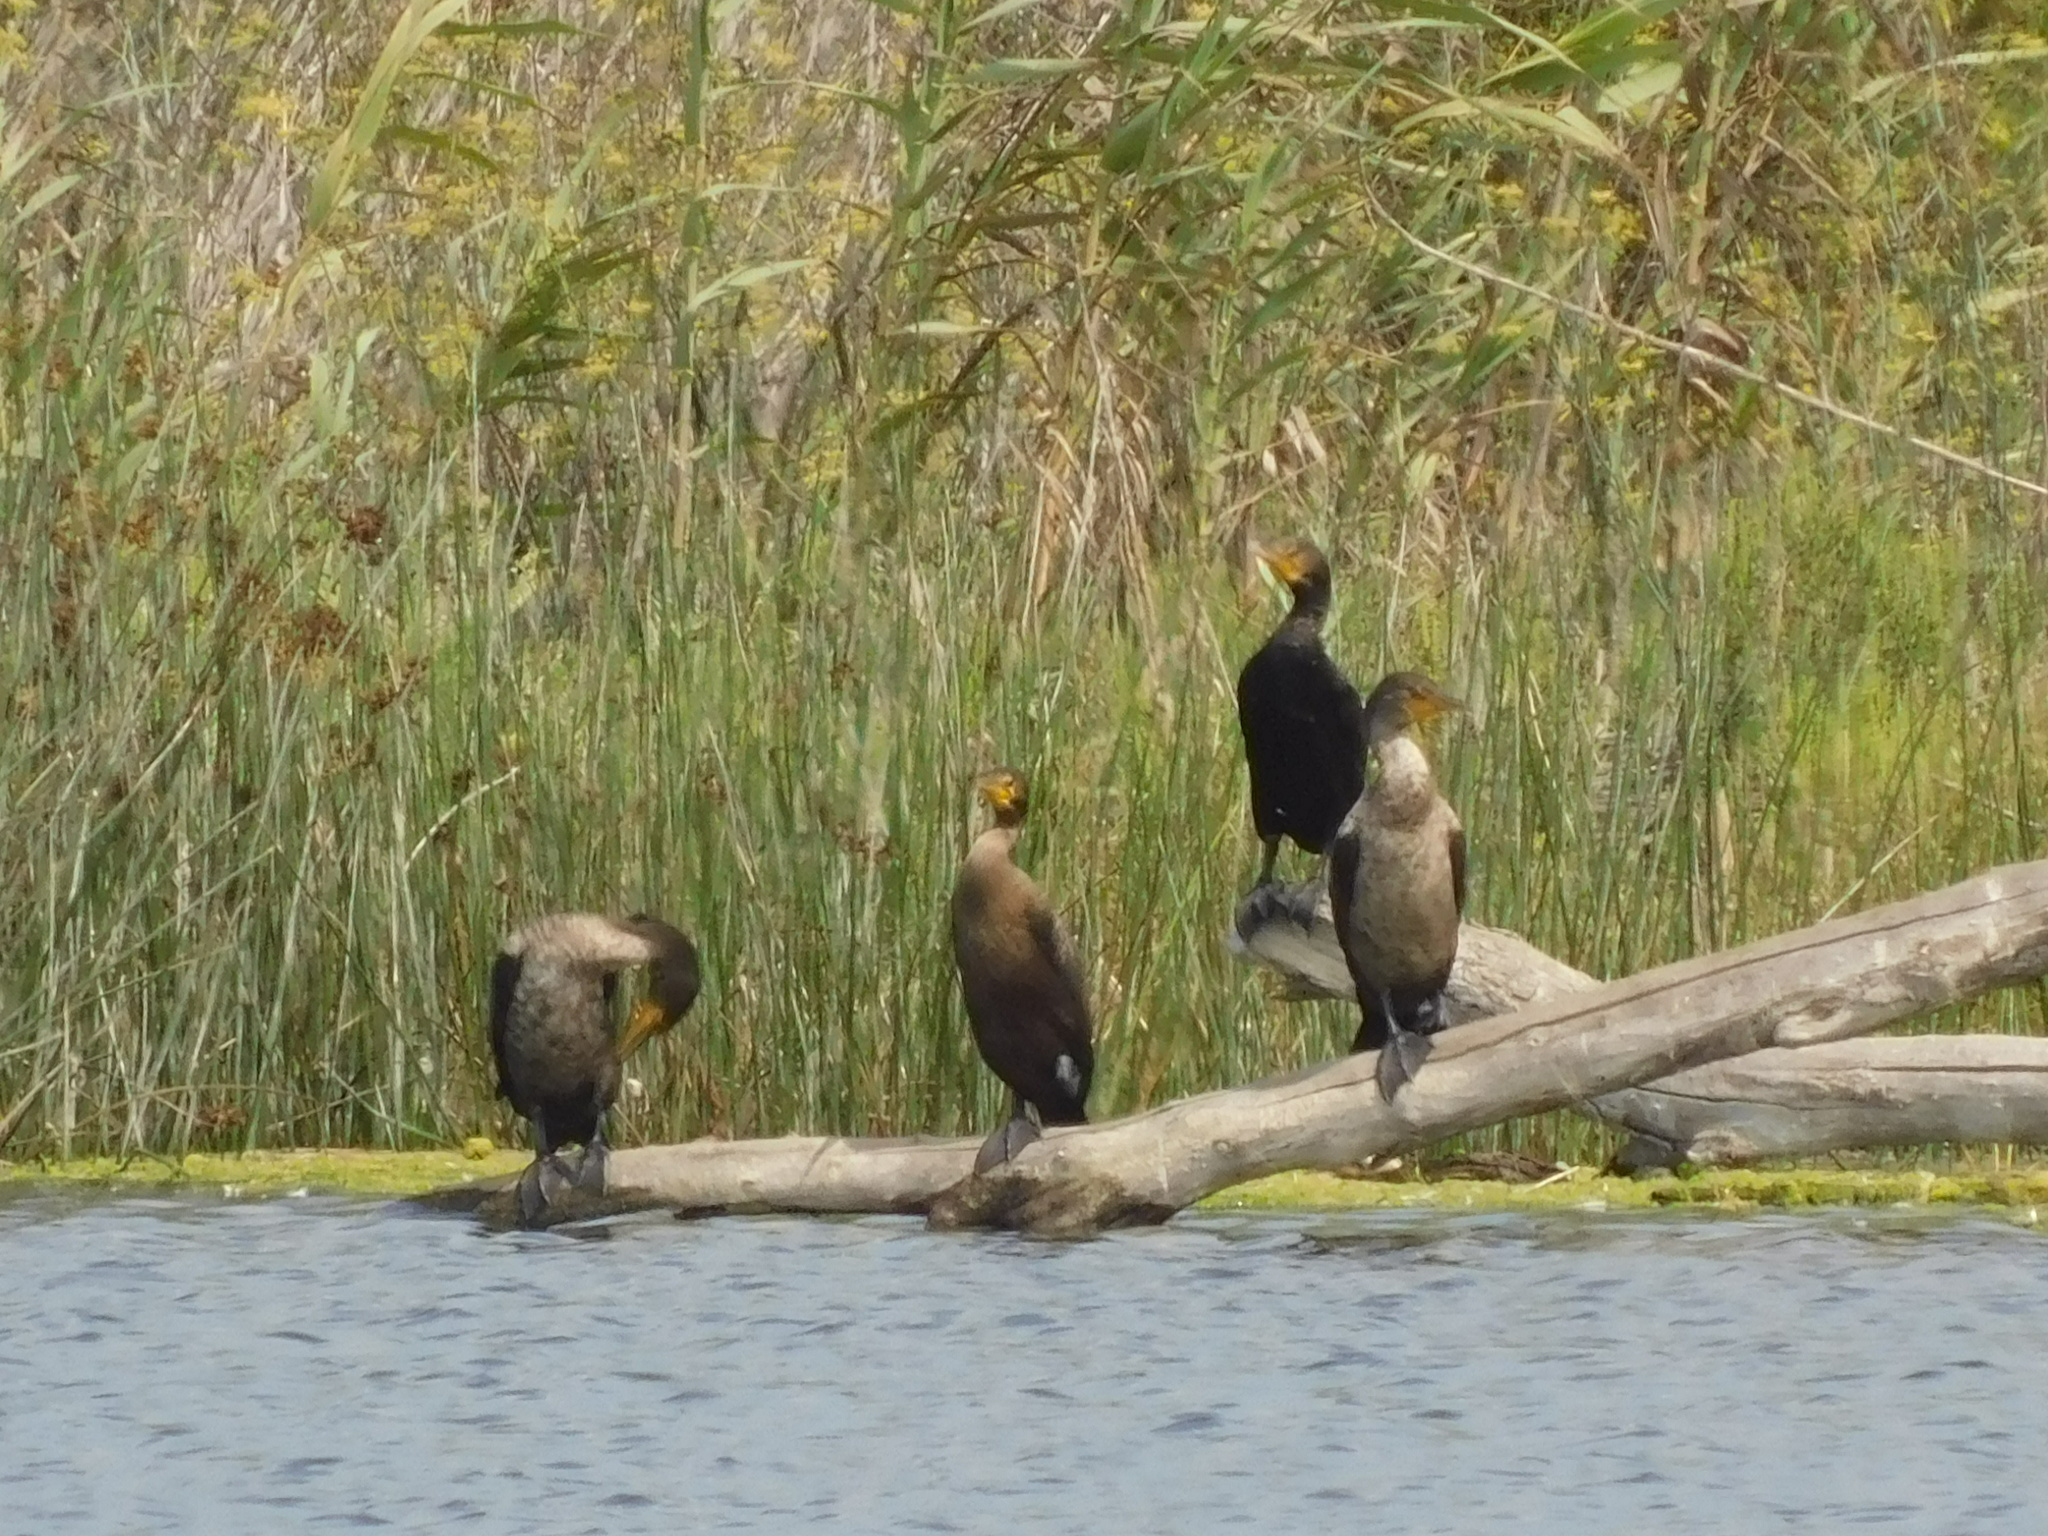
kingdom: Animalia
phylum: Chordata
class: Aves
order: Suliformes
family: Phalacrocoracidae
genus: Phalacrocorax
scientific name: Phalacrocorax auritus
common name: Double-crested cormorant
